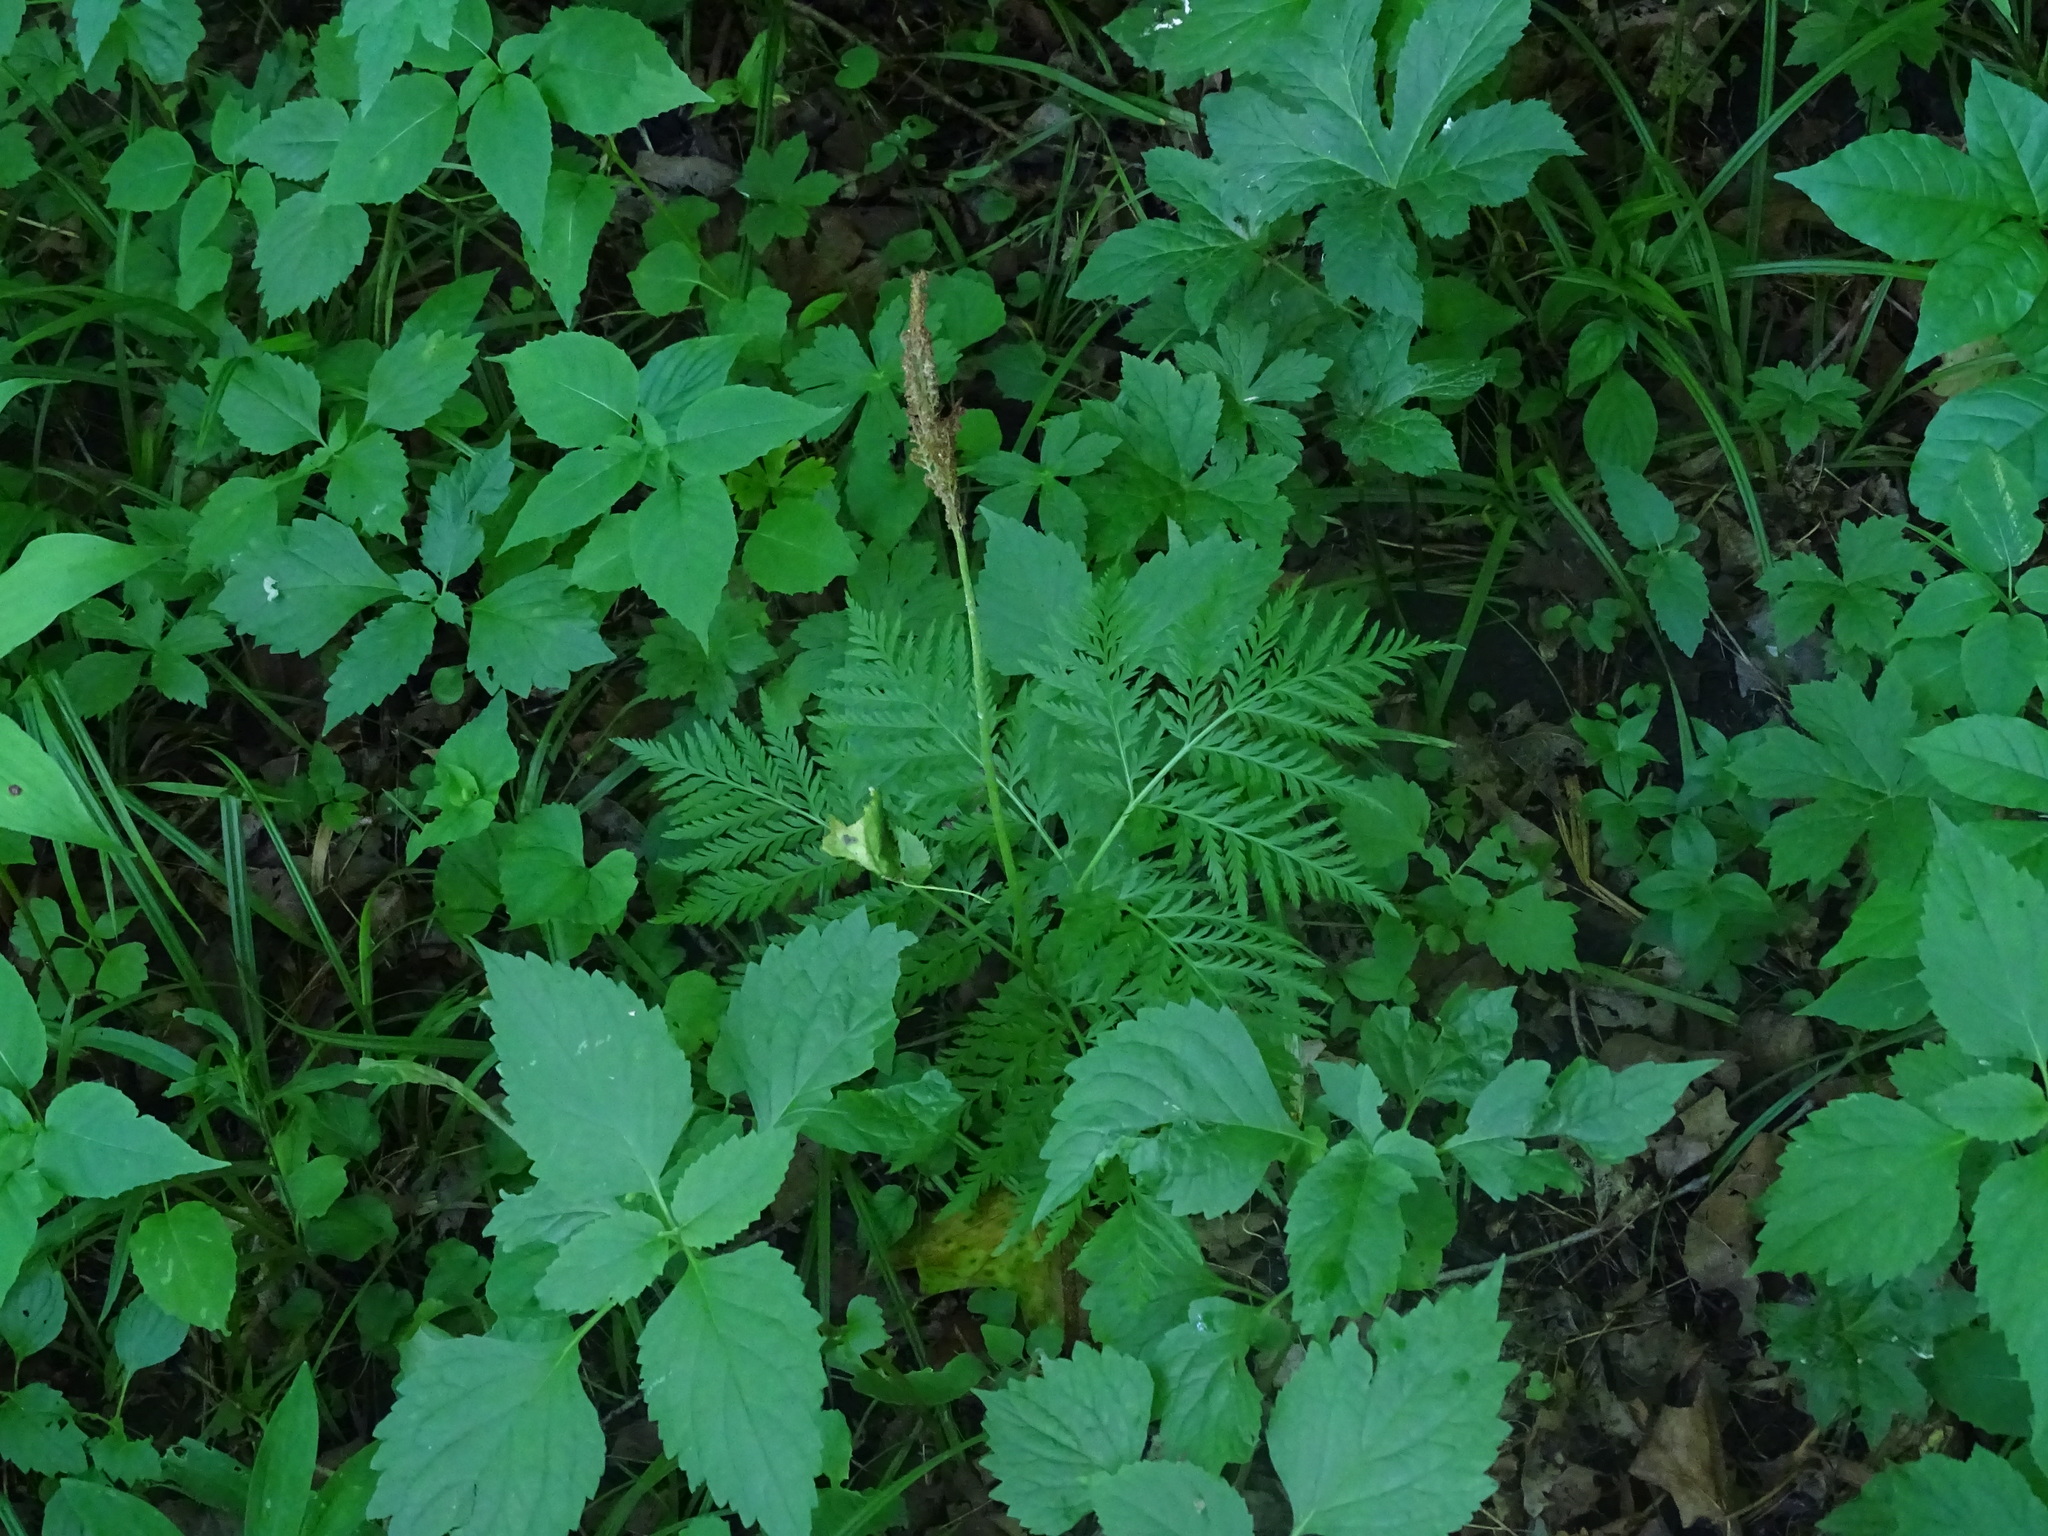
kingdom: Plantae
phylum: Tracheophyta
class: Polypodiopsida
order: Ophioglossales
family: Ophioglossaceae
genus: Botrypus
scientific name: Botrypus virginianus
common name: Common grapefern
